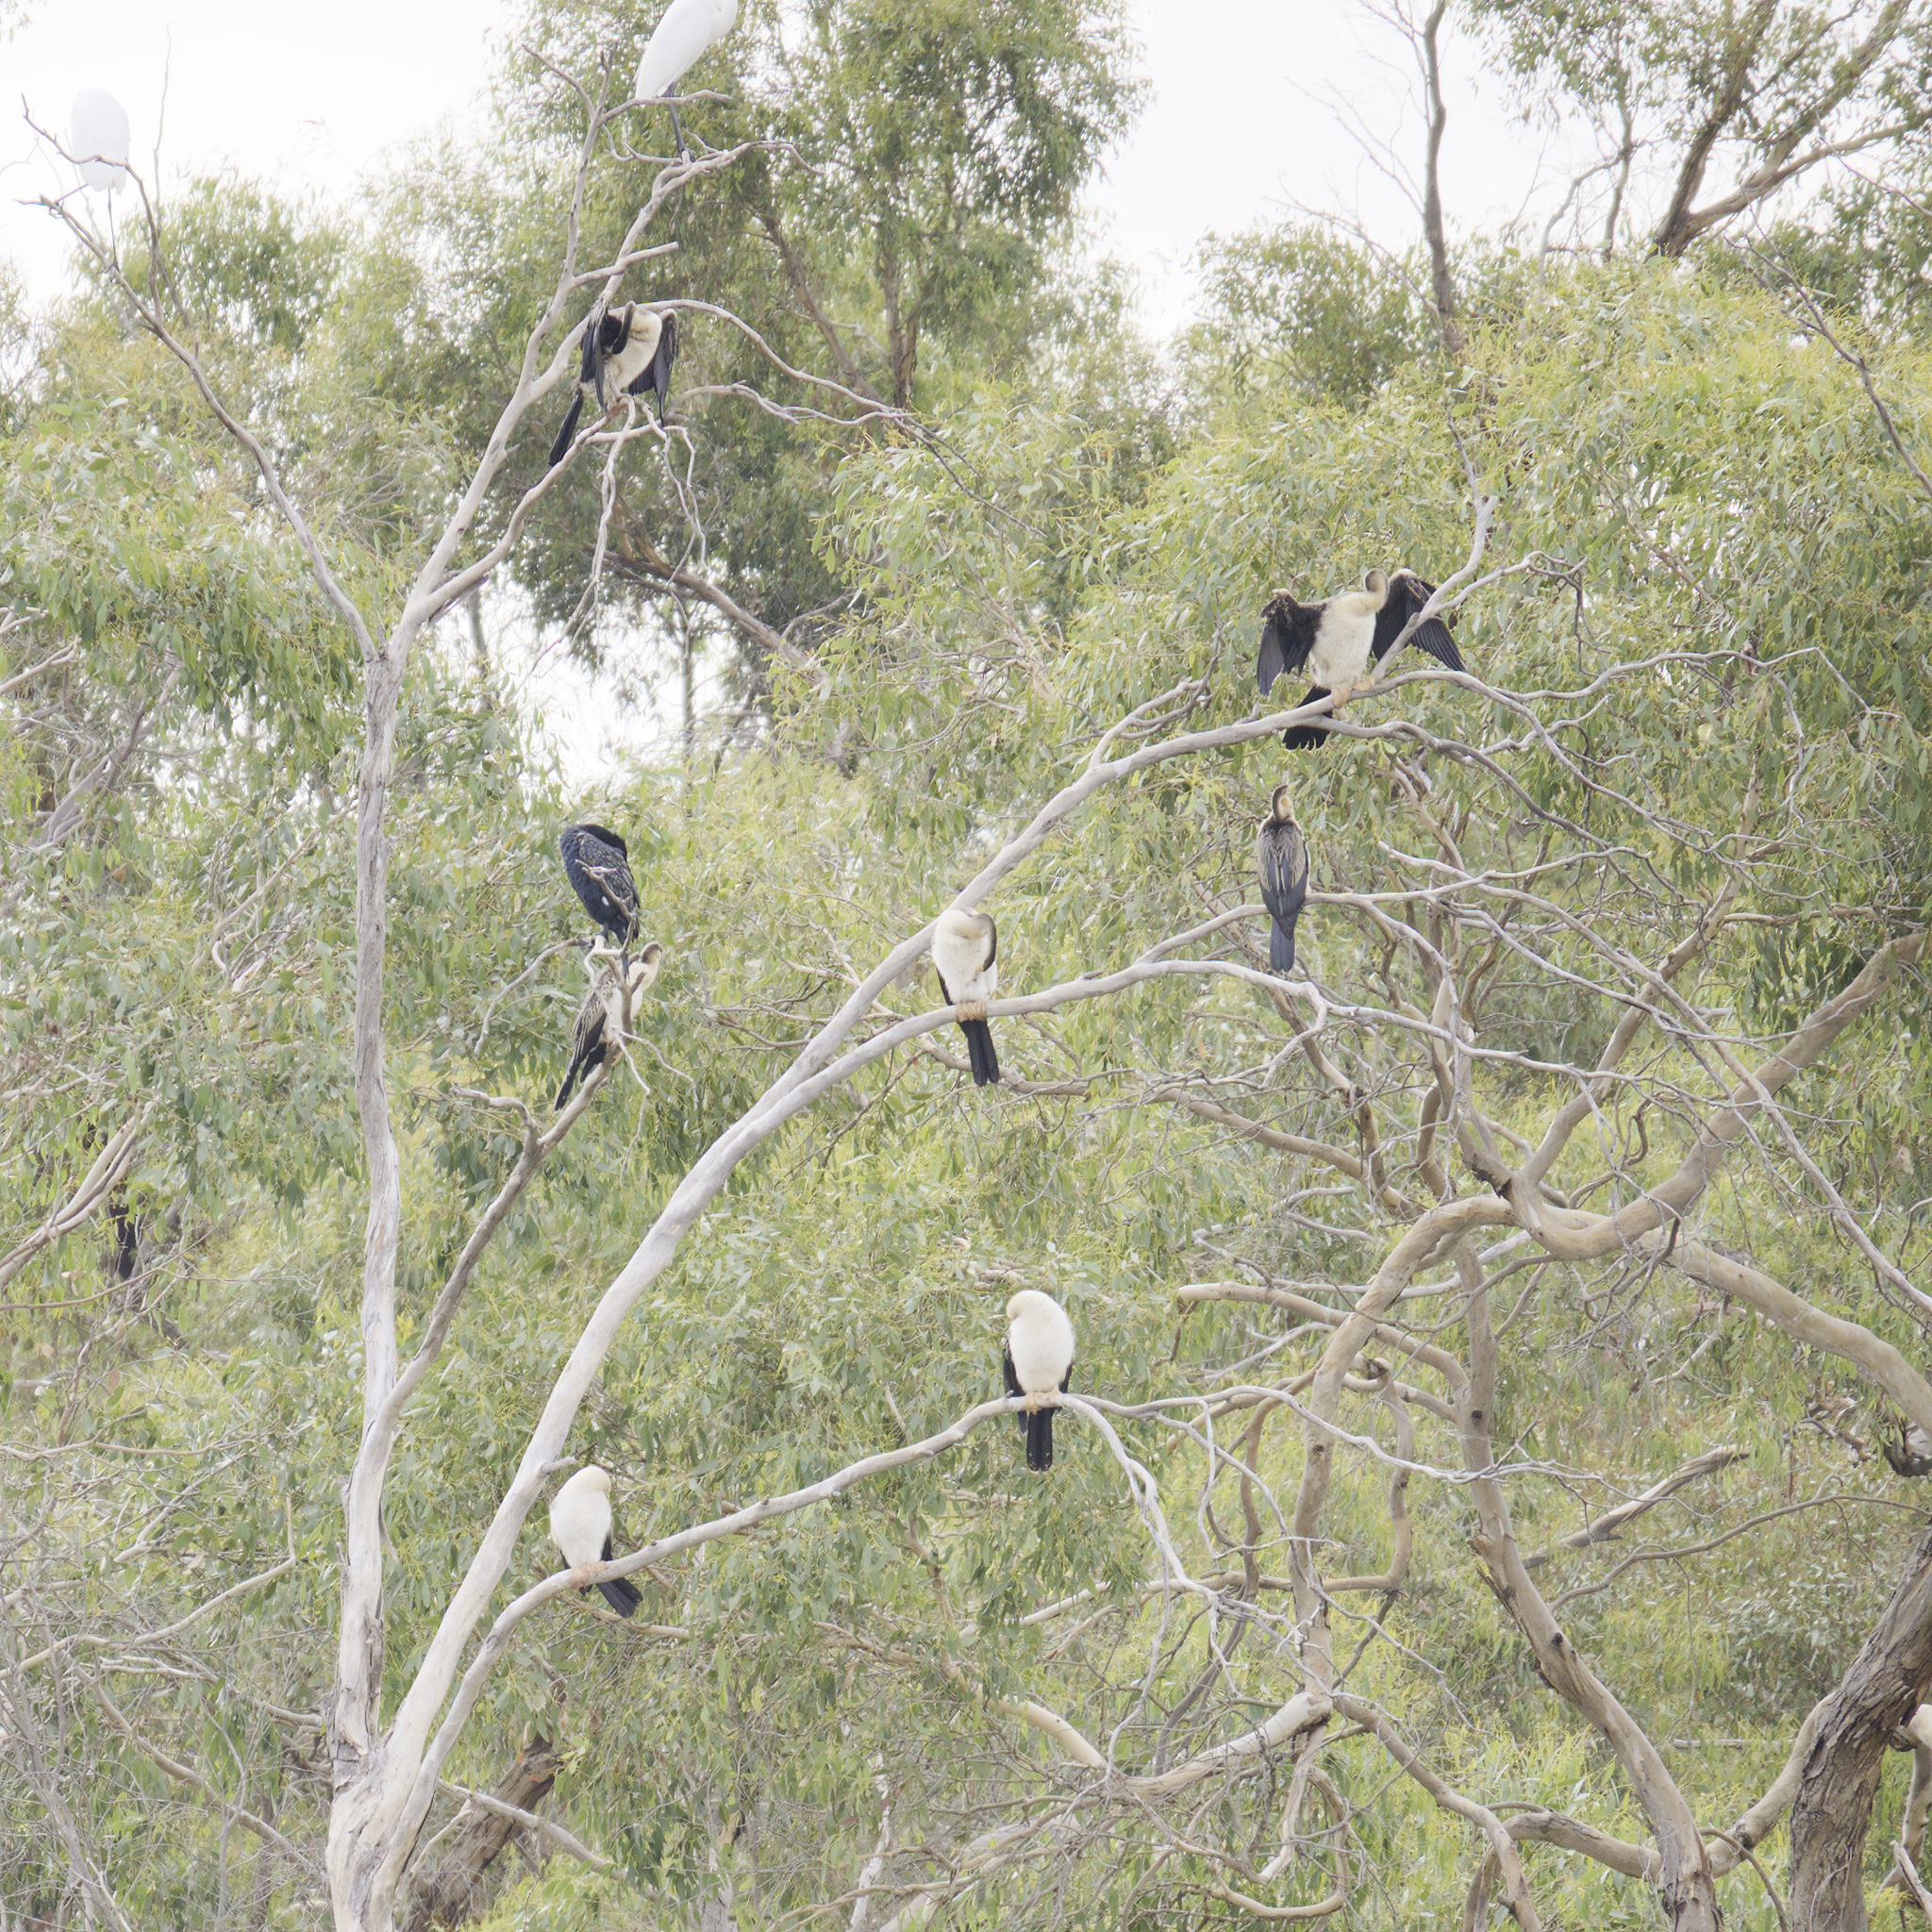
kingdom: Animalia
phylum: Chordata
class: Aves
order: Suliformes
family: Anhingidae
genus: Anhinga
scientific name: Anhinga novaehollandiae
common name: Australasian darter
